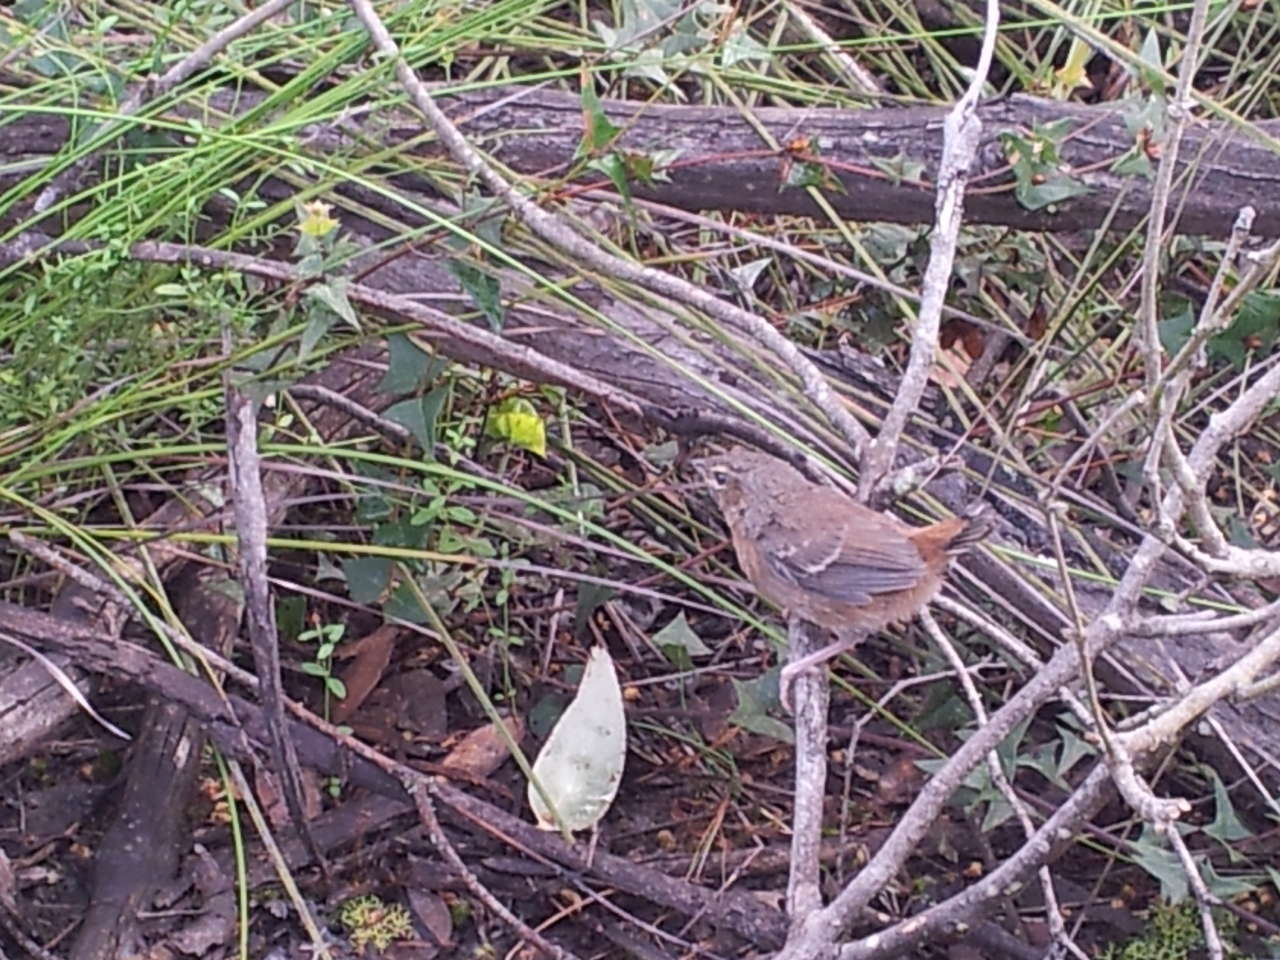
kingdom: Animalia
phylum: Chordata
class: Aves
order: Passeriformes
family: Acanthizidae
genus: Calamanthus
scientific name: Calamanthus pyrrhopygius
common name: Chestnut-rumped heathwren
